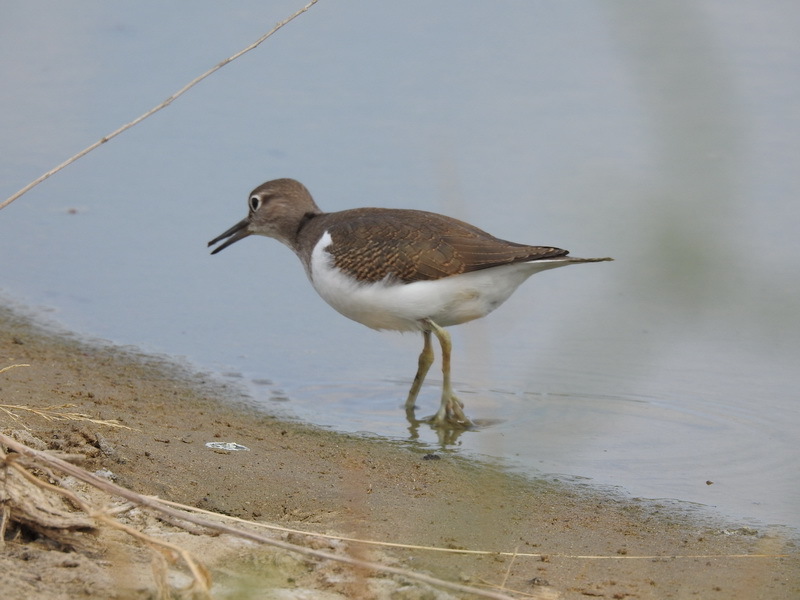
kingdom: Animalia
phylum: Chordata
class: Aves
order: Charadriiformes
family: Scolopacidae
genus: Actitis
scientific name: Actitis hypoleucos
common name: Common sandpiper
